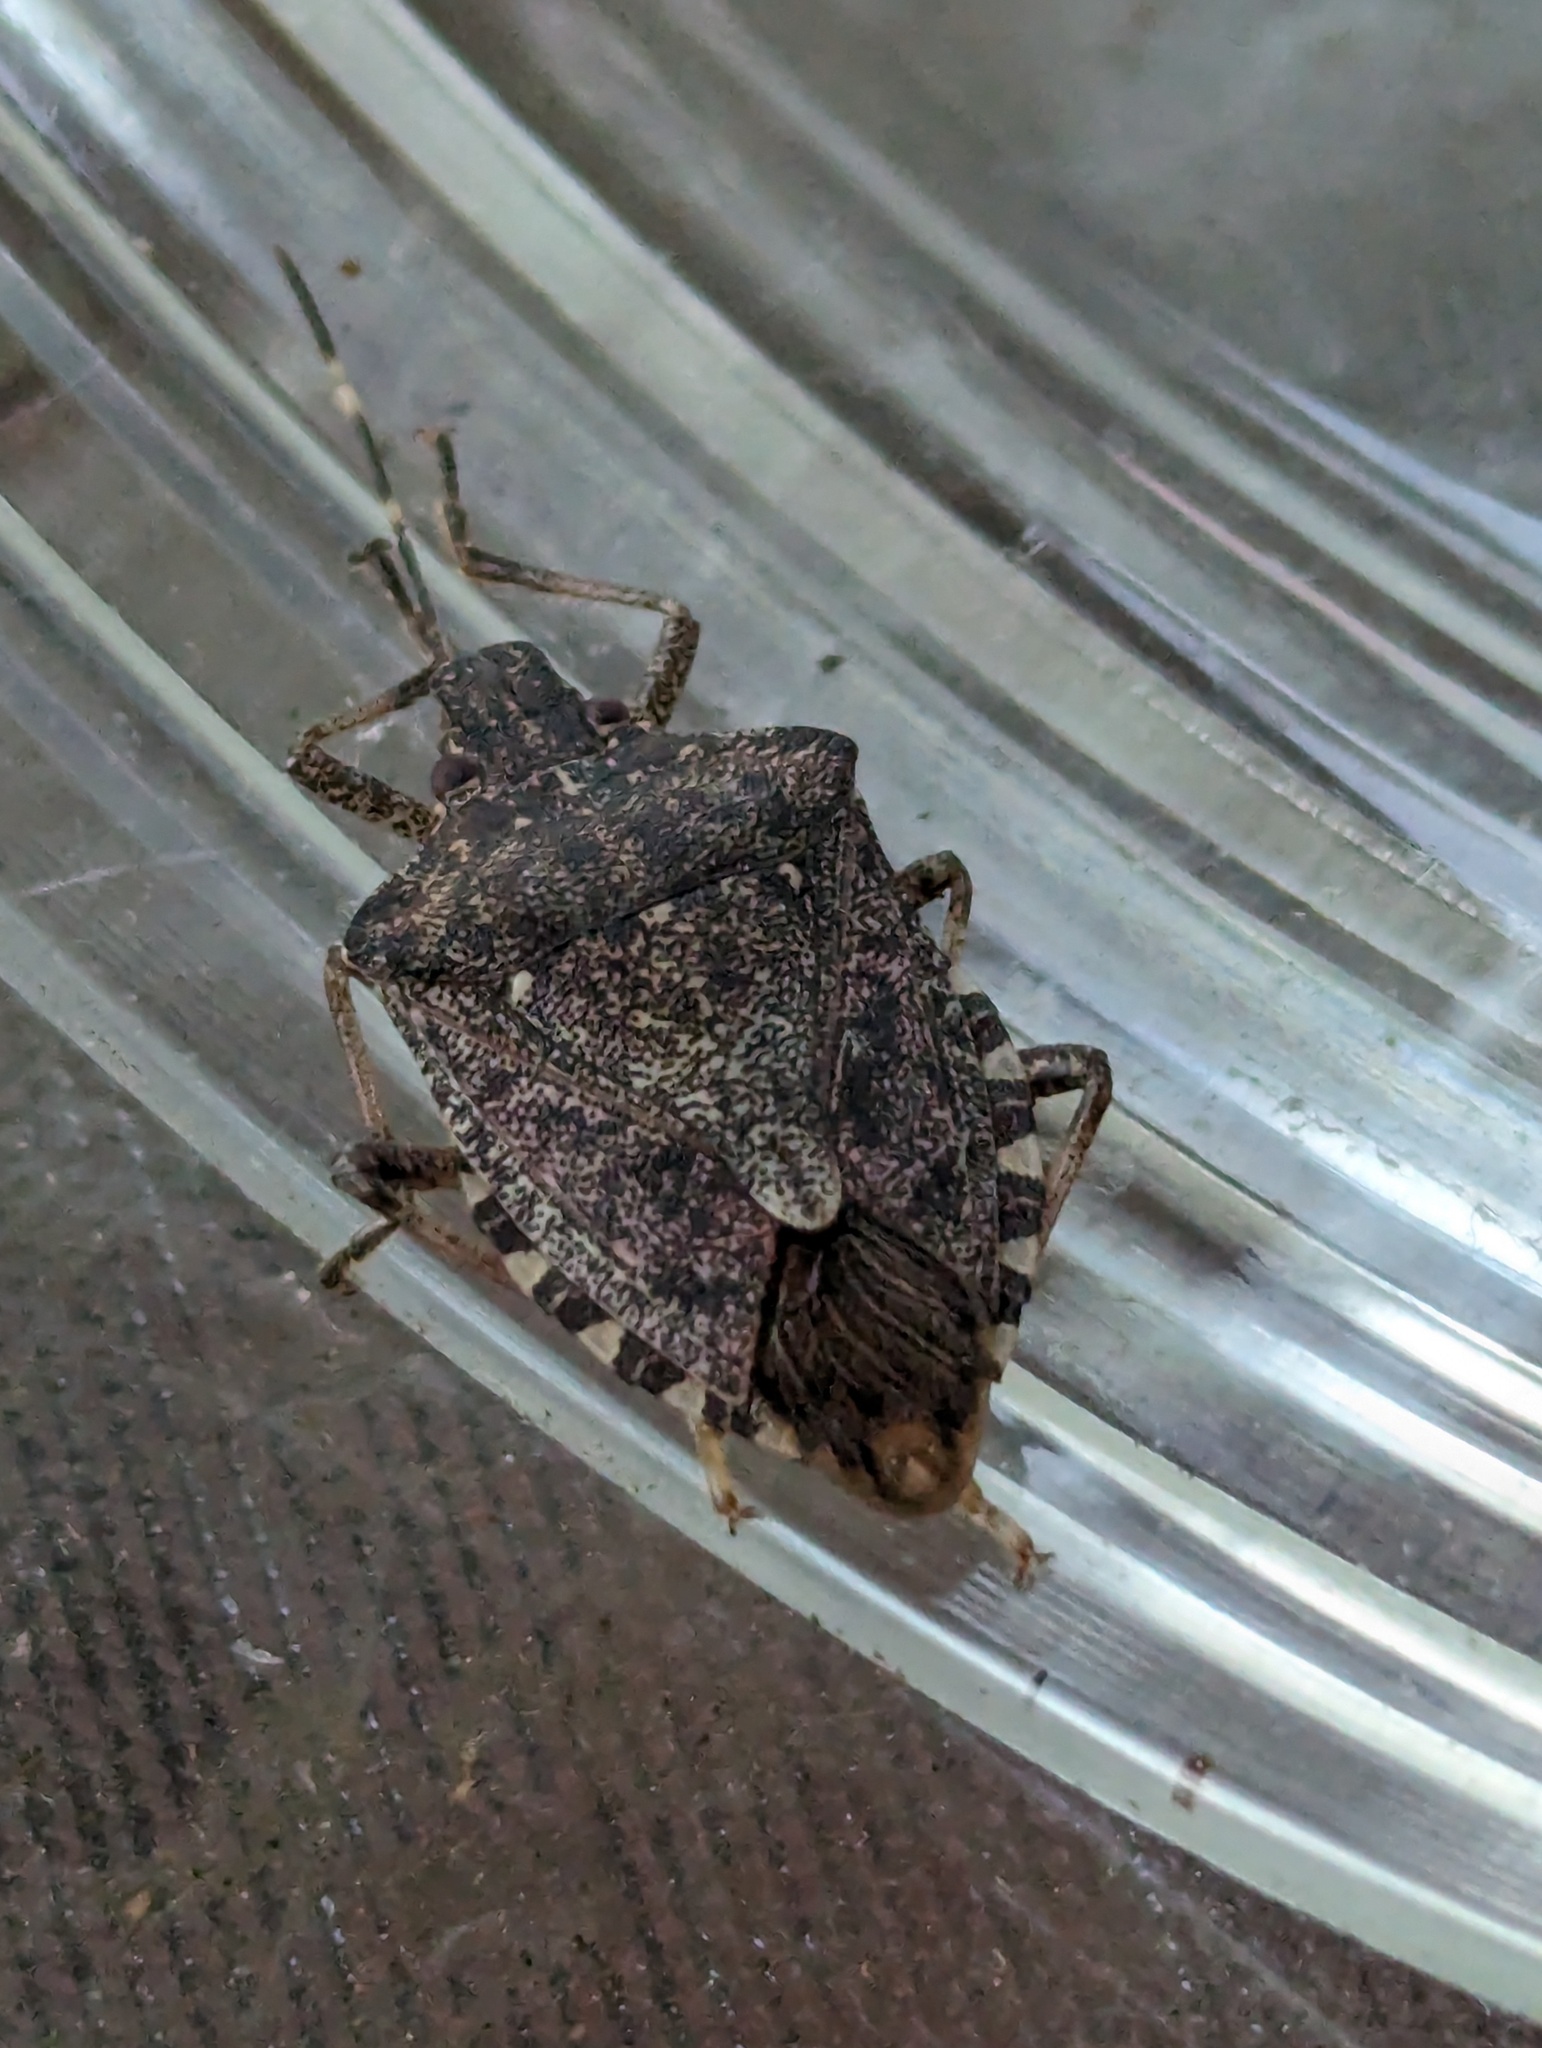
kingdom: Animalia
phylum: Arthropoda
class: Insecta
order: Hemiptera
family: Pentatomidae
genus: Halyomorpha
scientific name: Halyomorpha halys
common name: Brown marmorated stink bug
